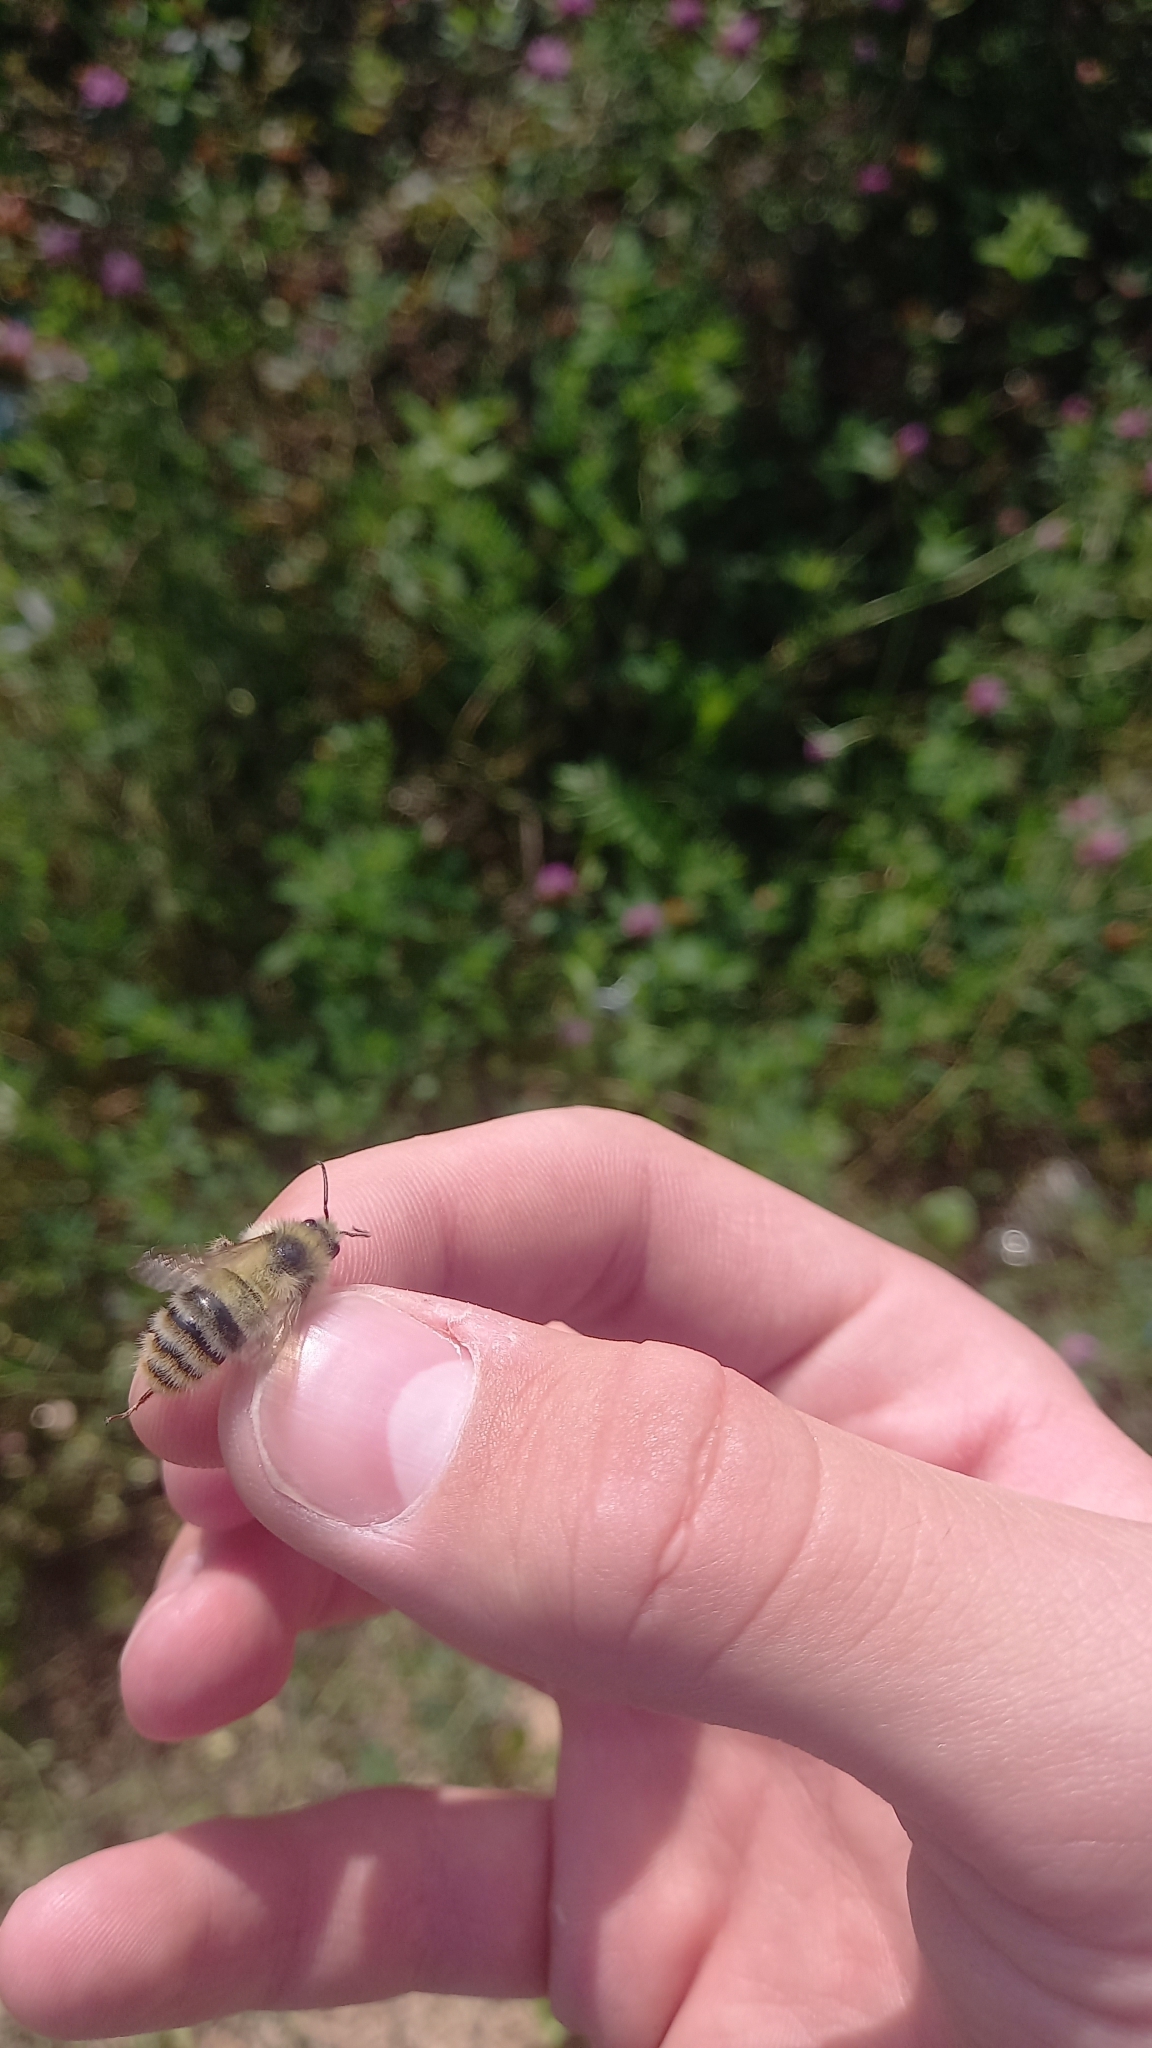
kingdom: Animalia
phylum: Arthropoda
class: Insecta
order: Hymenoptera
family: Apidae
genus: Bombus
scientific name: Bombus sylvarum
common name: Shrill carder bee
